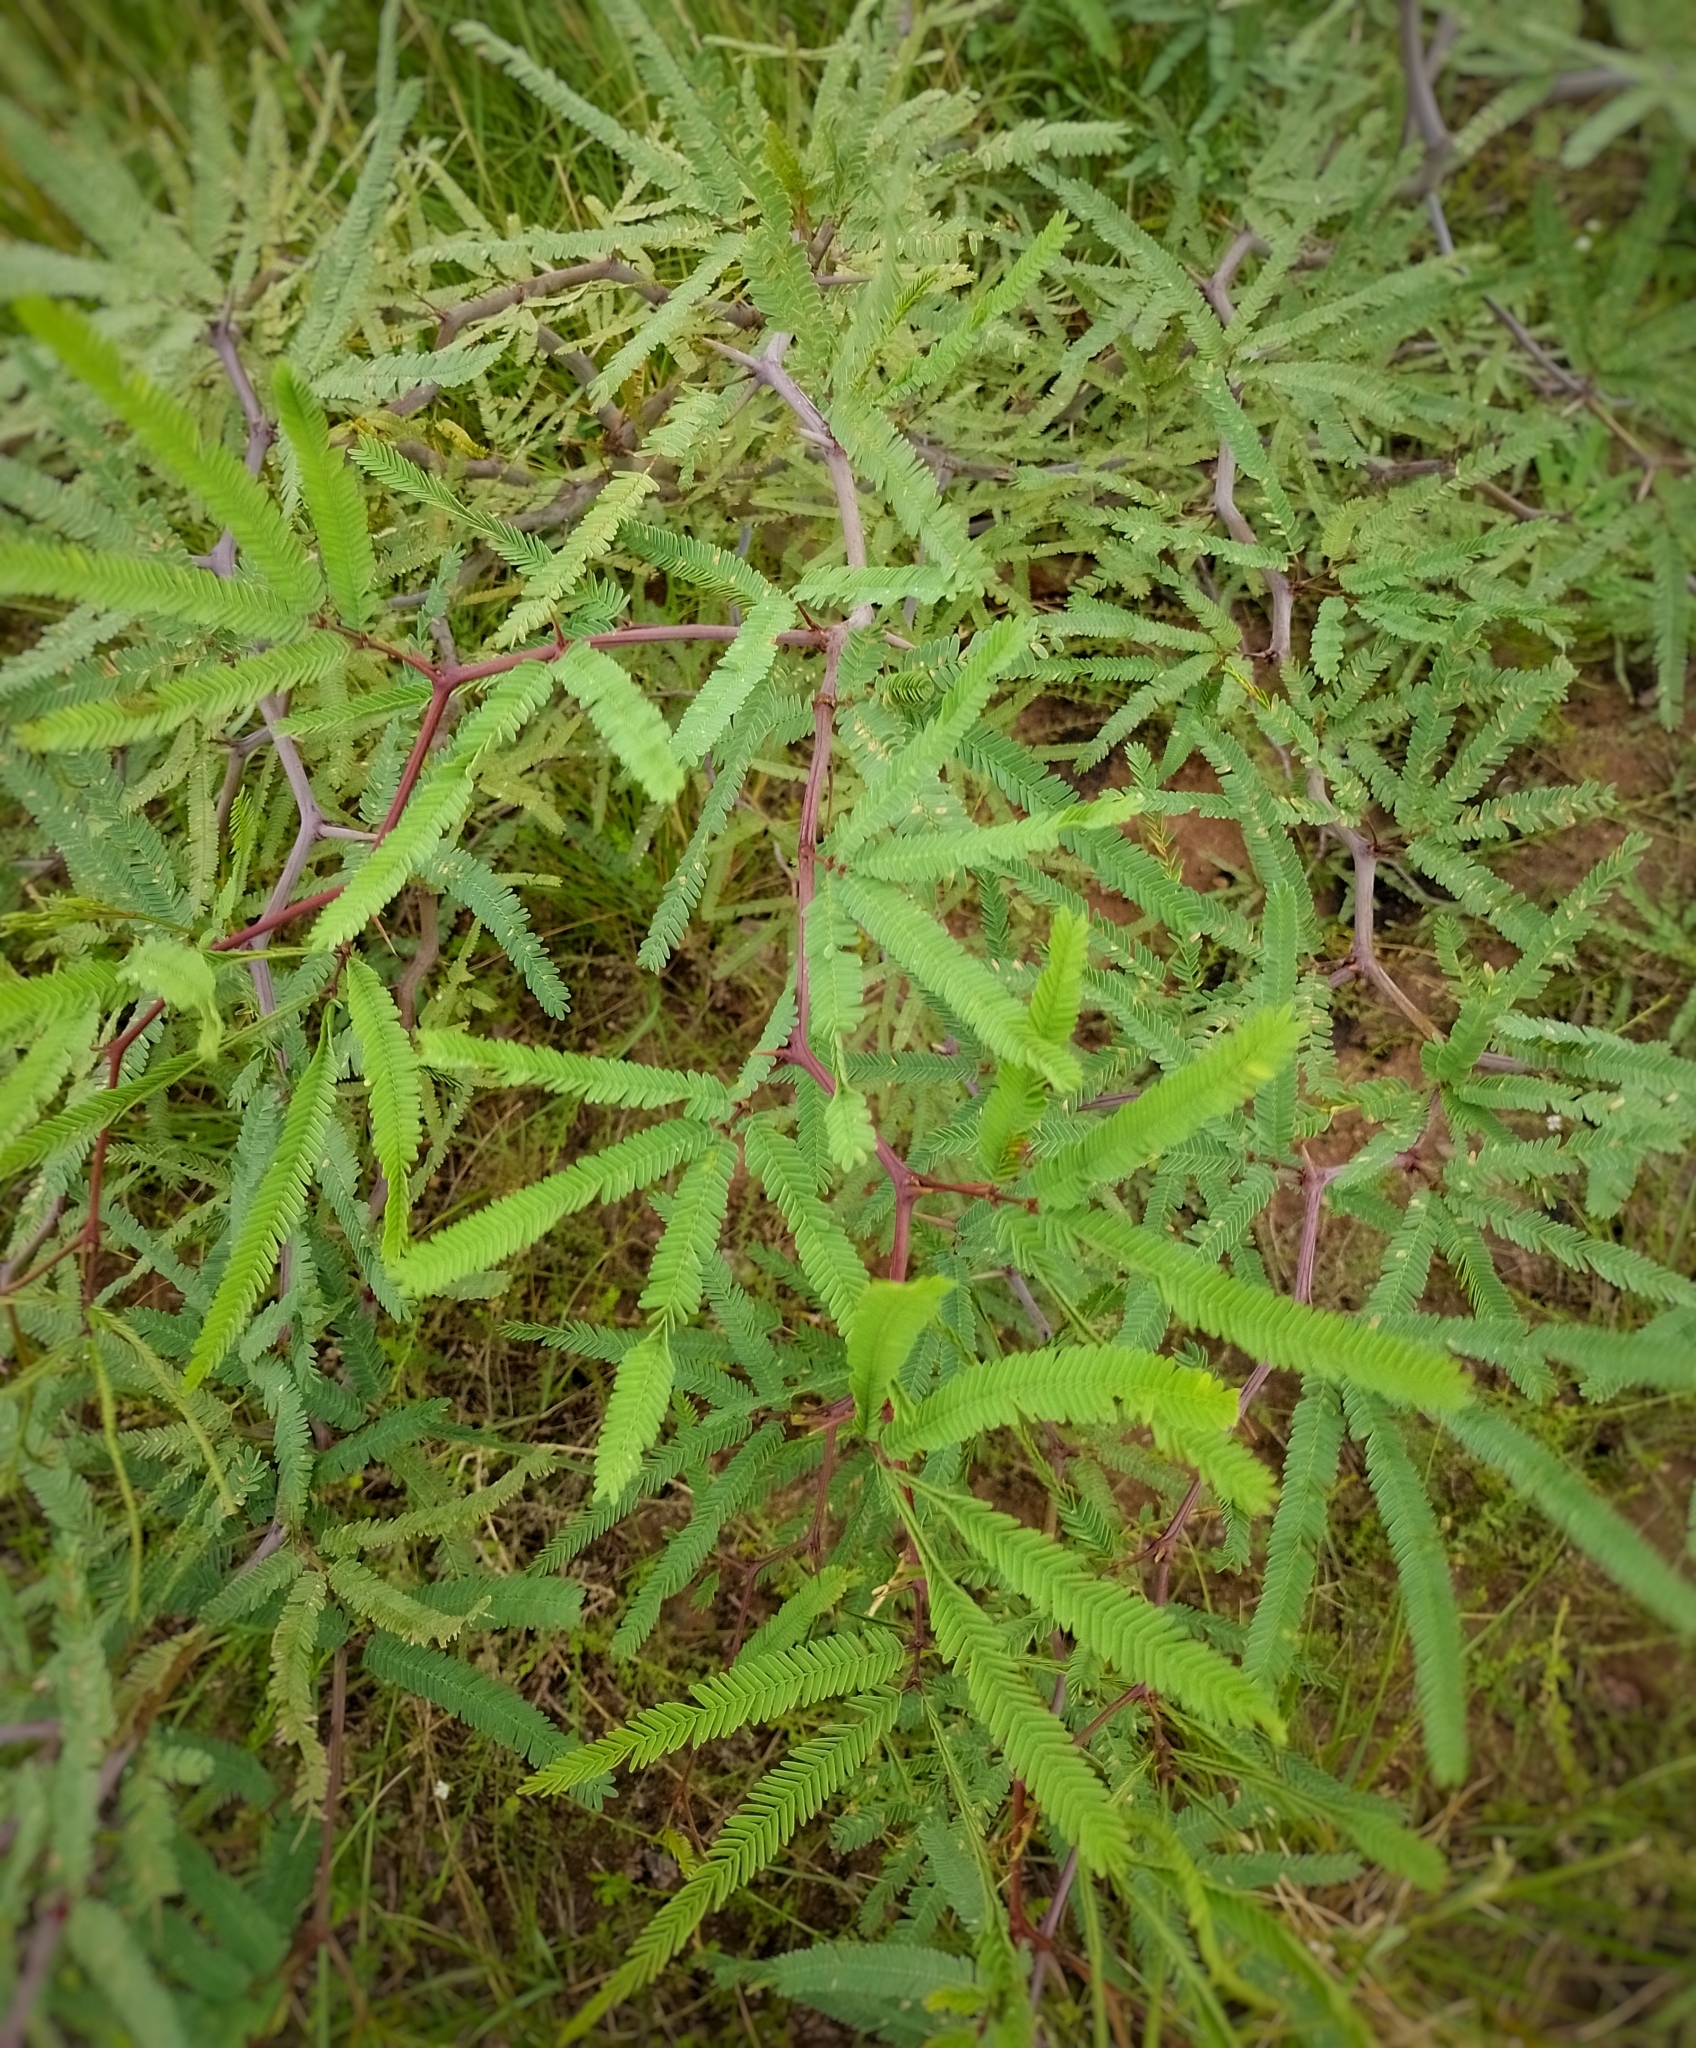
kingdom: Plantae
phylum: Tracheophyta
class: Magnoliopsida
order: Fabales
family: Fabaceae
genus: Prosopis
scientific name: Prosopis alba
